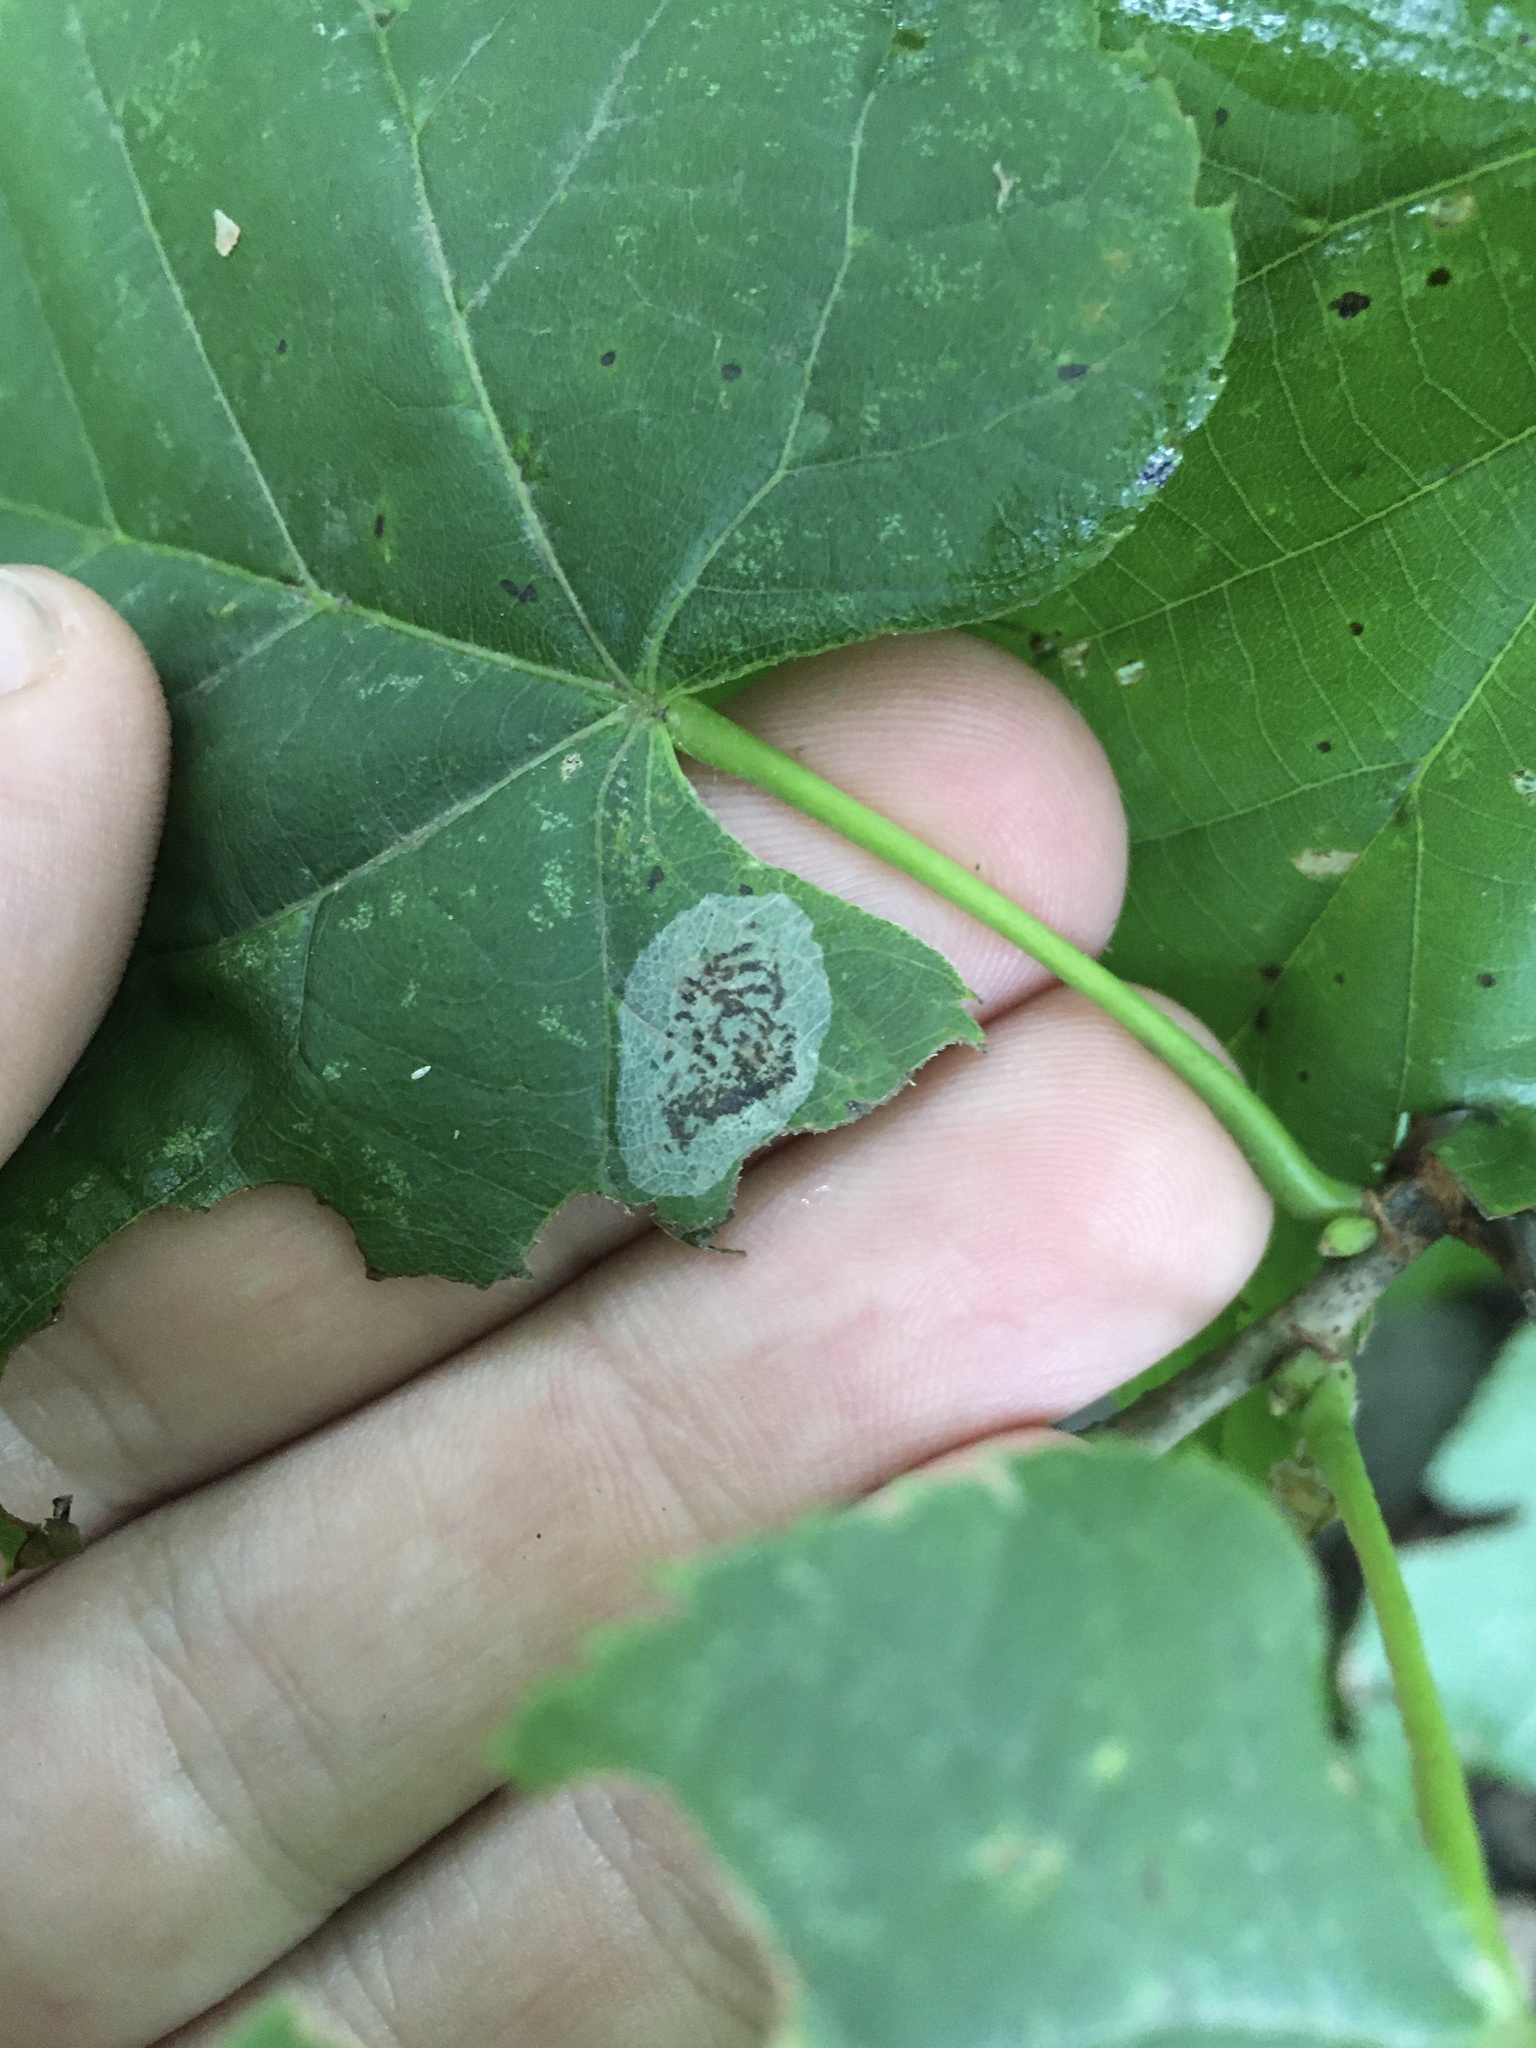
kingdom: Animalia
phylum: Arthropoda
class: Insecta
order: Lepidoptera
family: Gracillariidae
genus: Phyllonorycter
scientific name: Phyllonorycter tiliacella
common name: Basswood round-blotch miner moth
